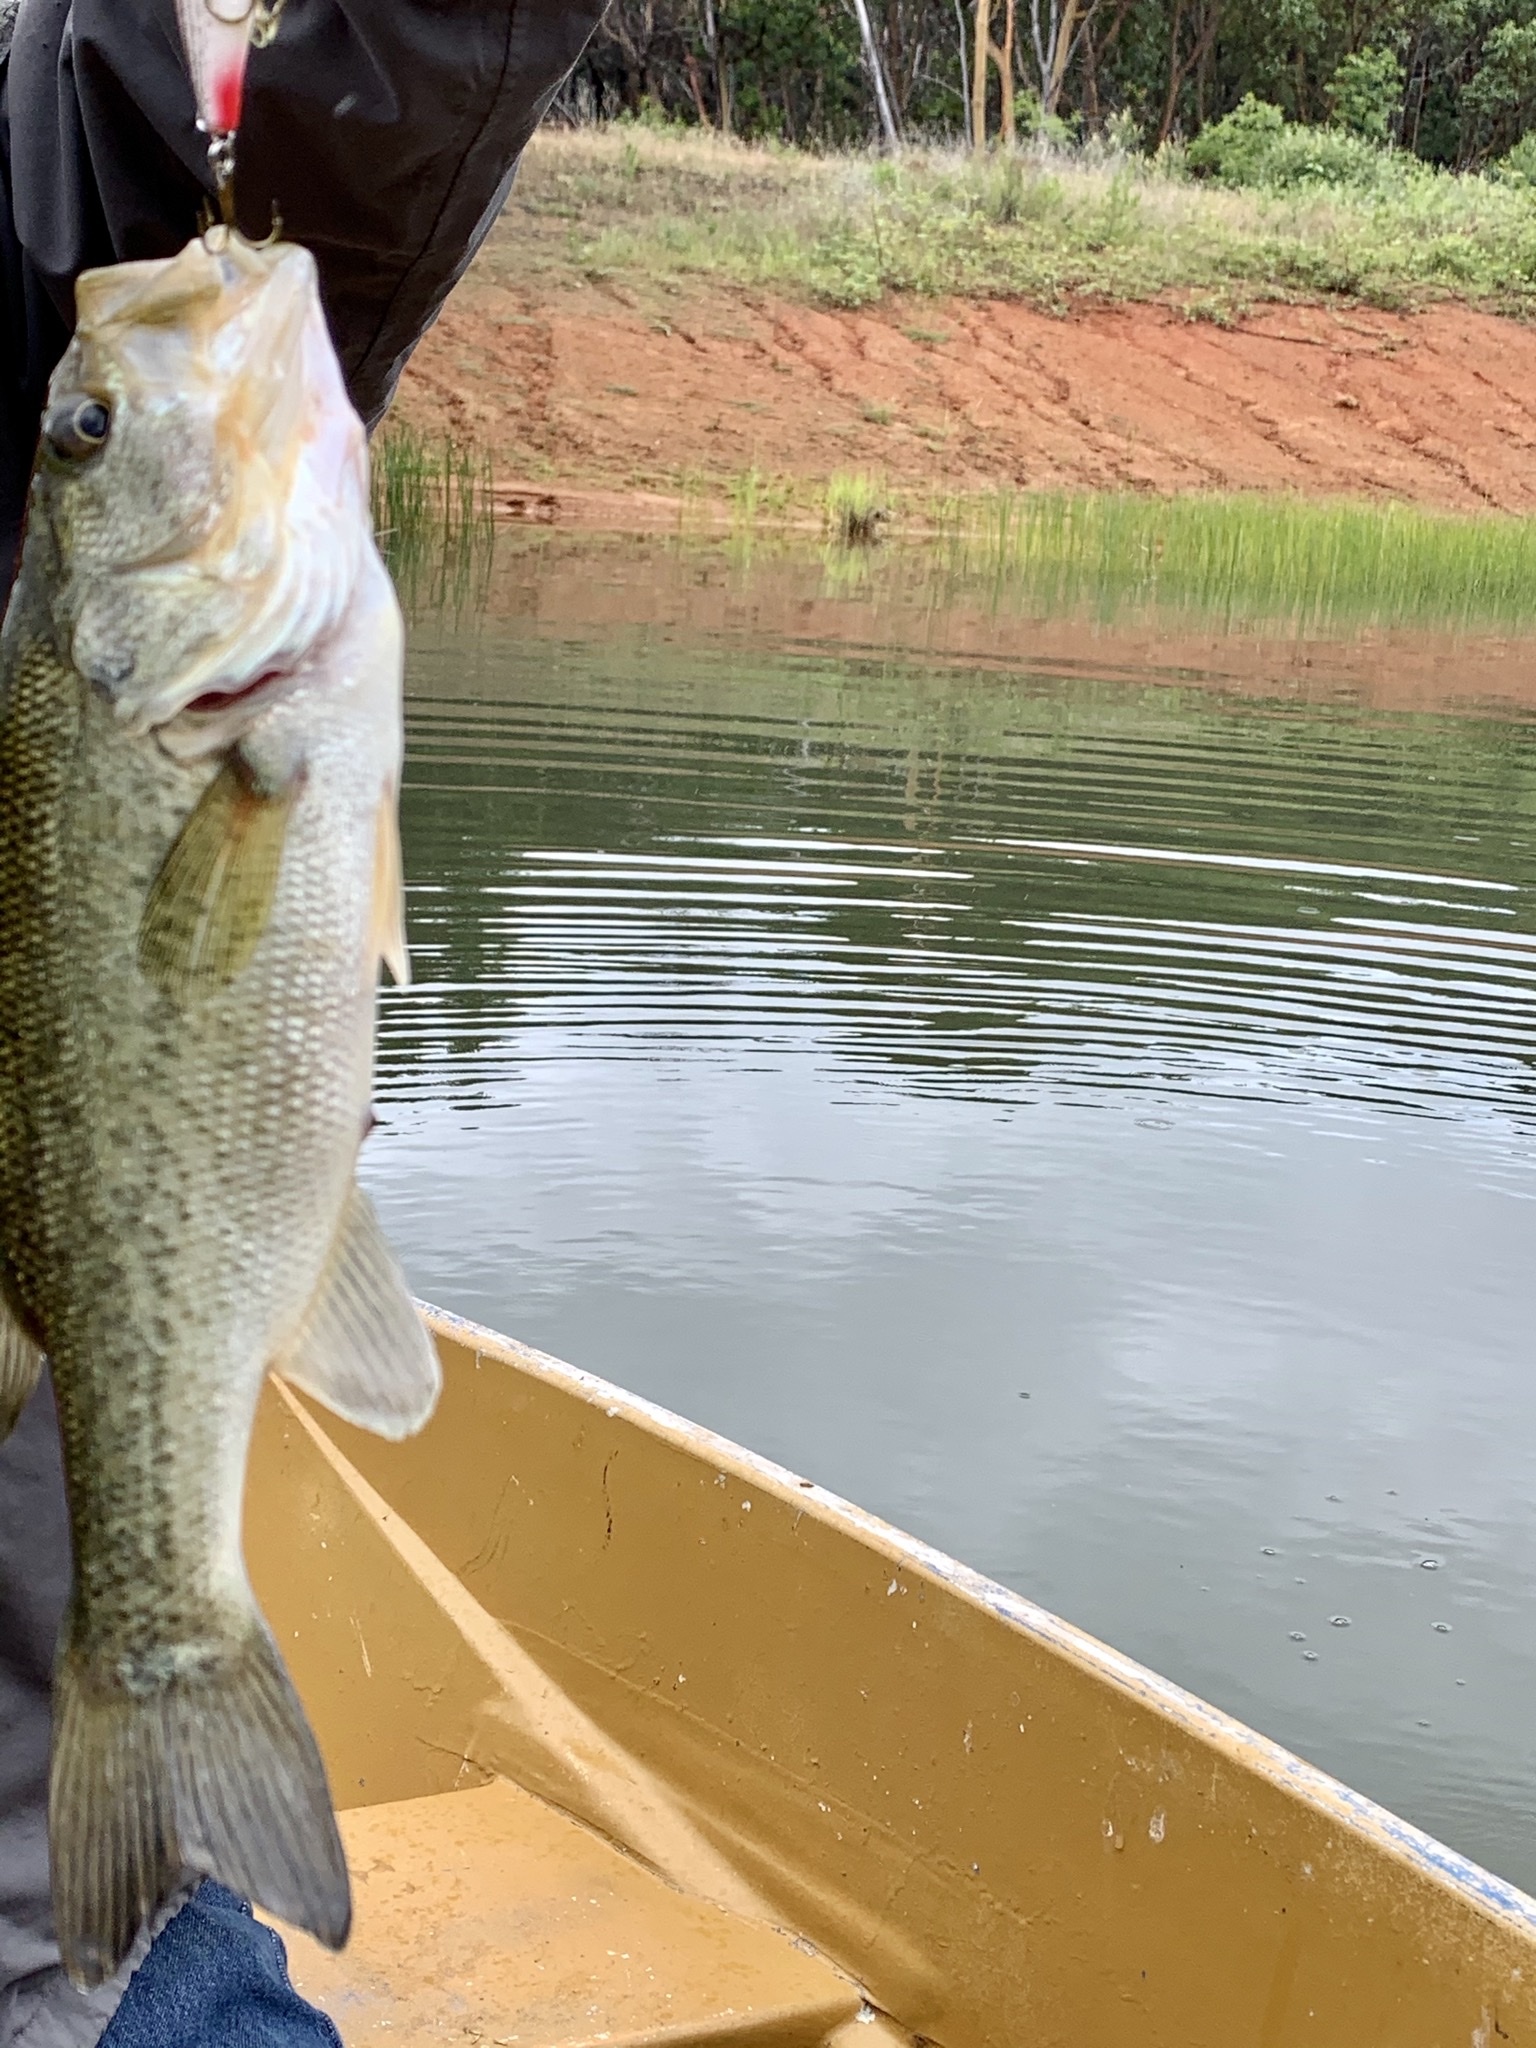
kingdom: Animalia
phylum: Chordata
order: Perciformes
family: Centrarchidae
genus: Micropterus
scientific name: Micropterus
